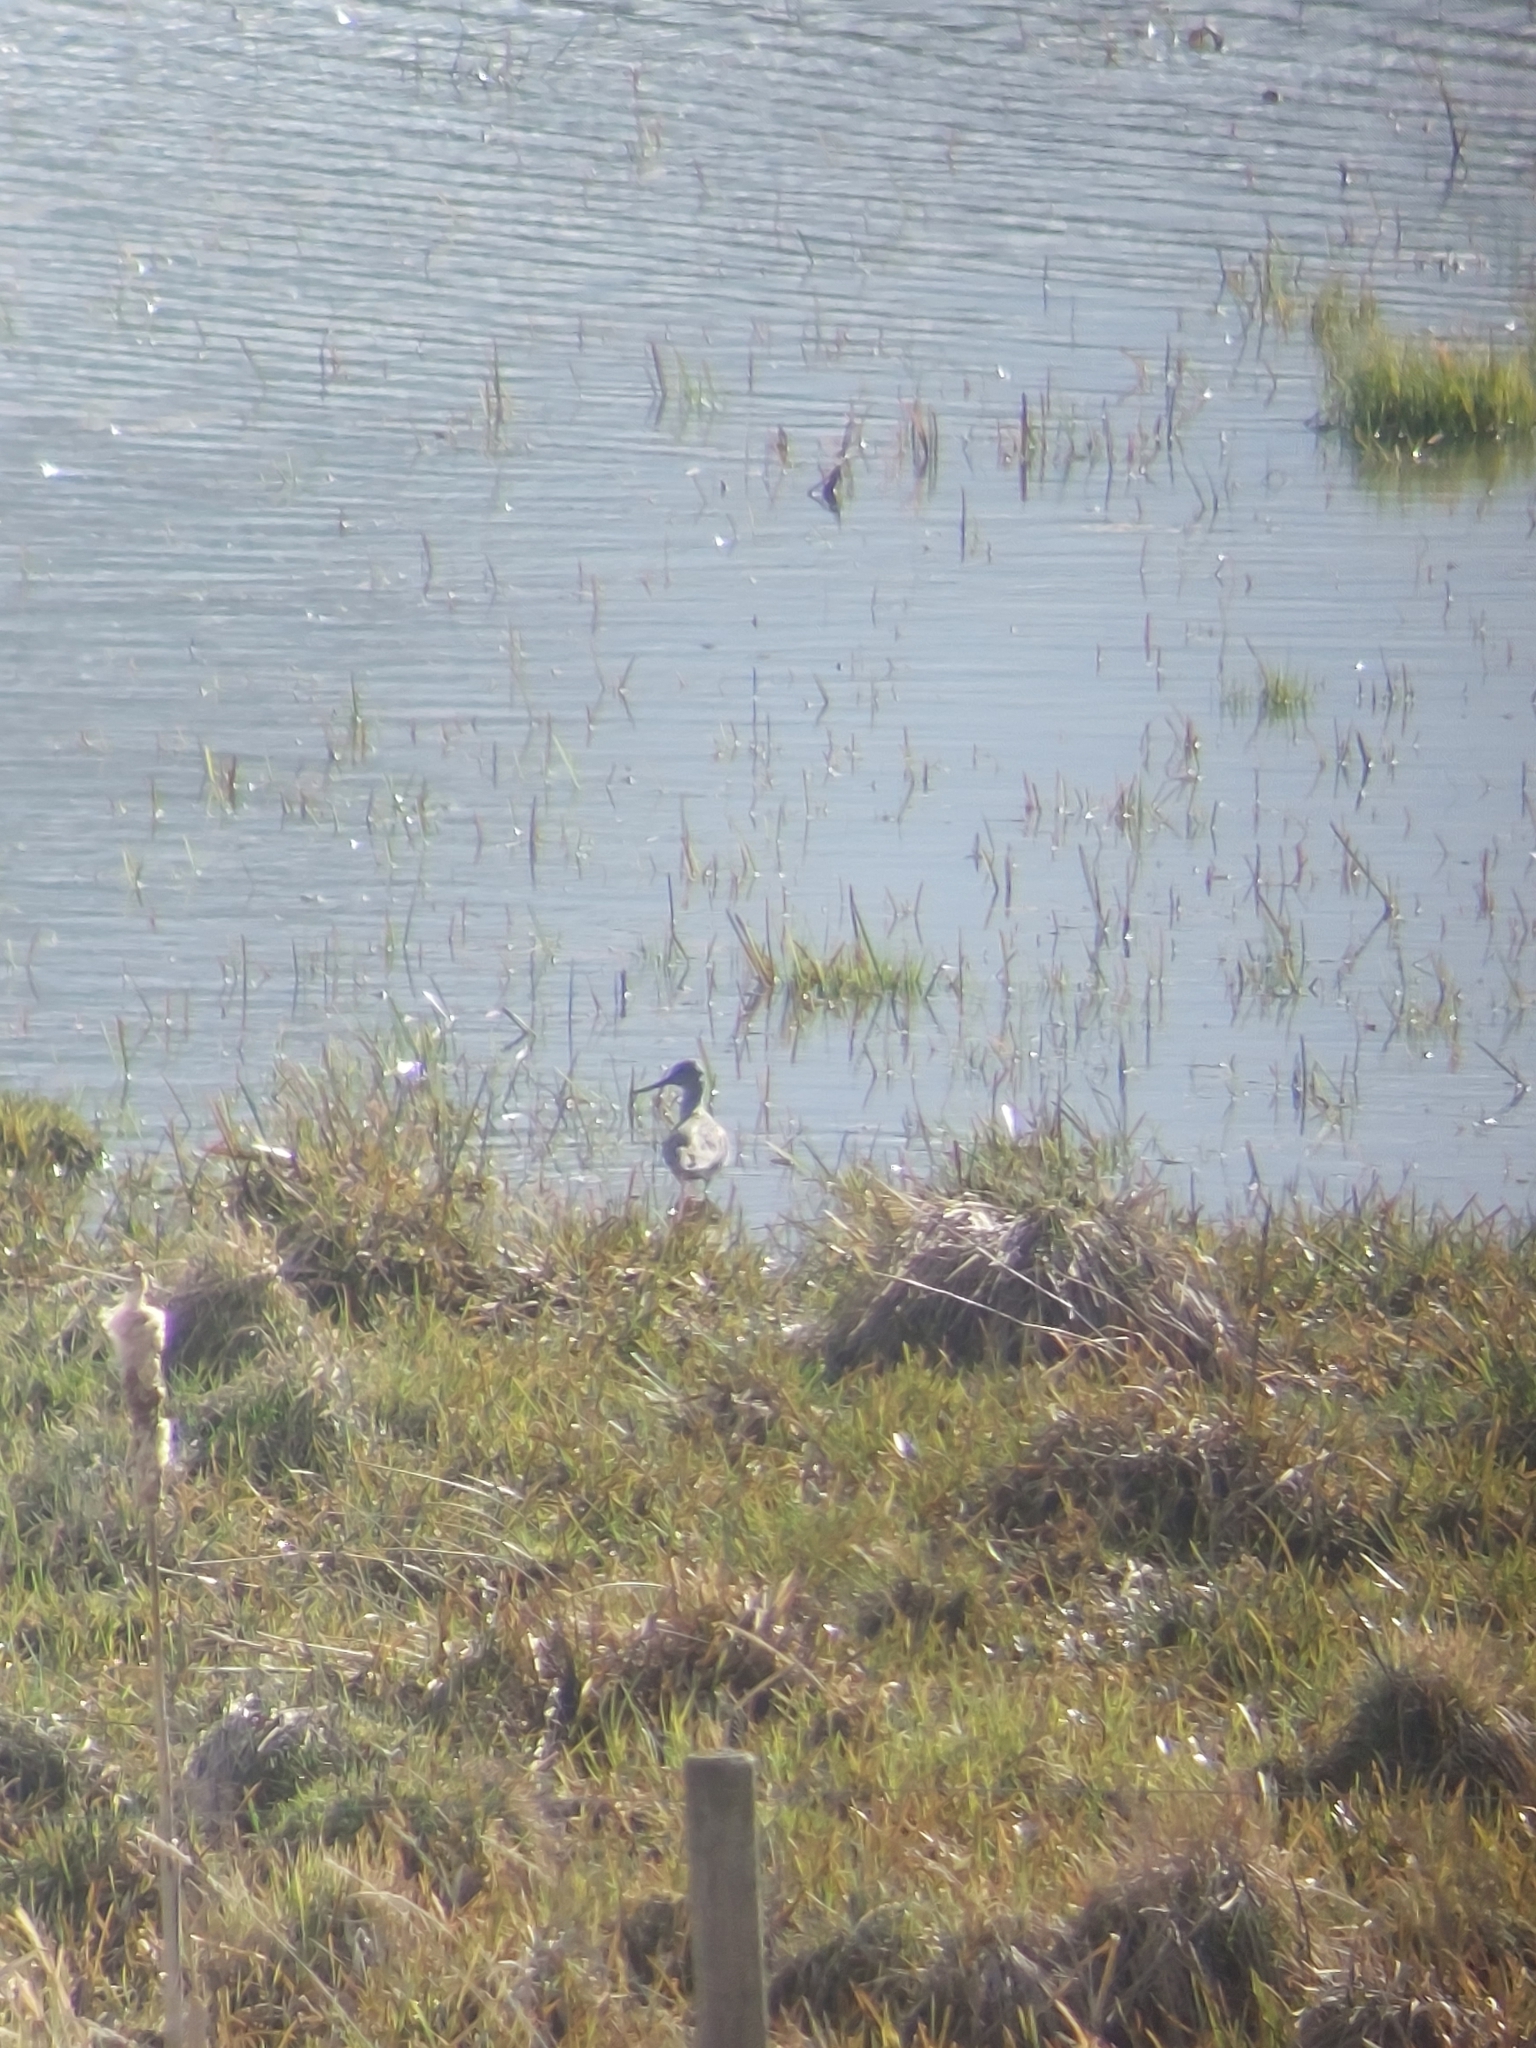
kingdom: Animalia
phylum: Chordata
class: Aves
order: Charadriiformes
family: Scolopacidae
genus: Tringa
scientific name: Tringa nebularia
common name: Common greenshank
